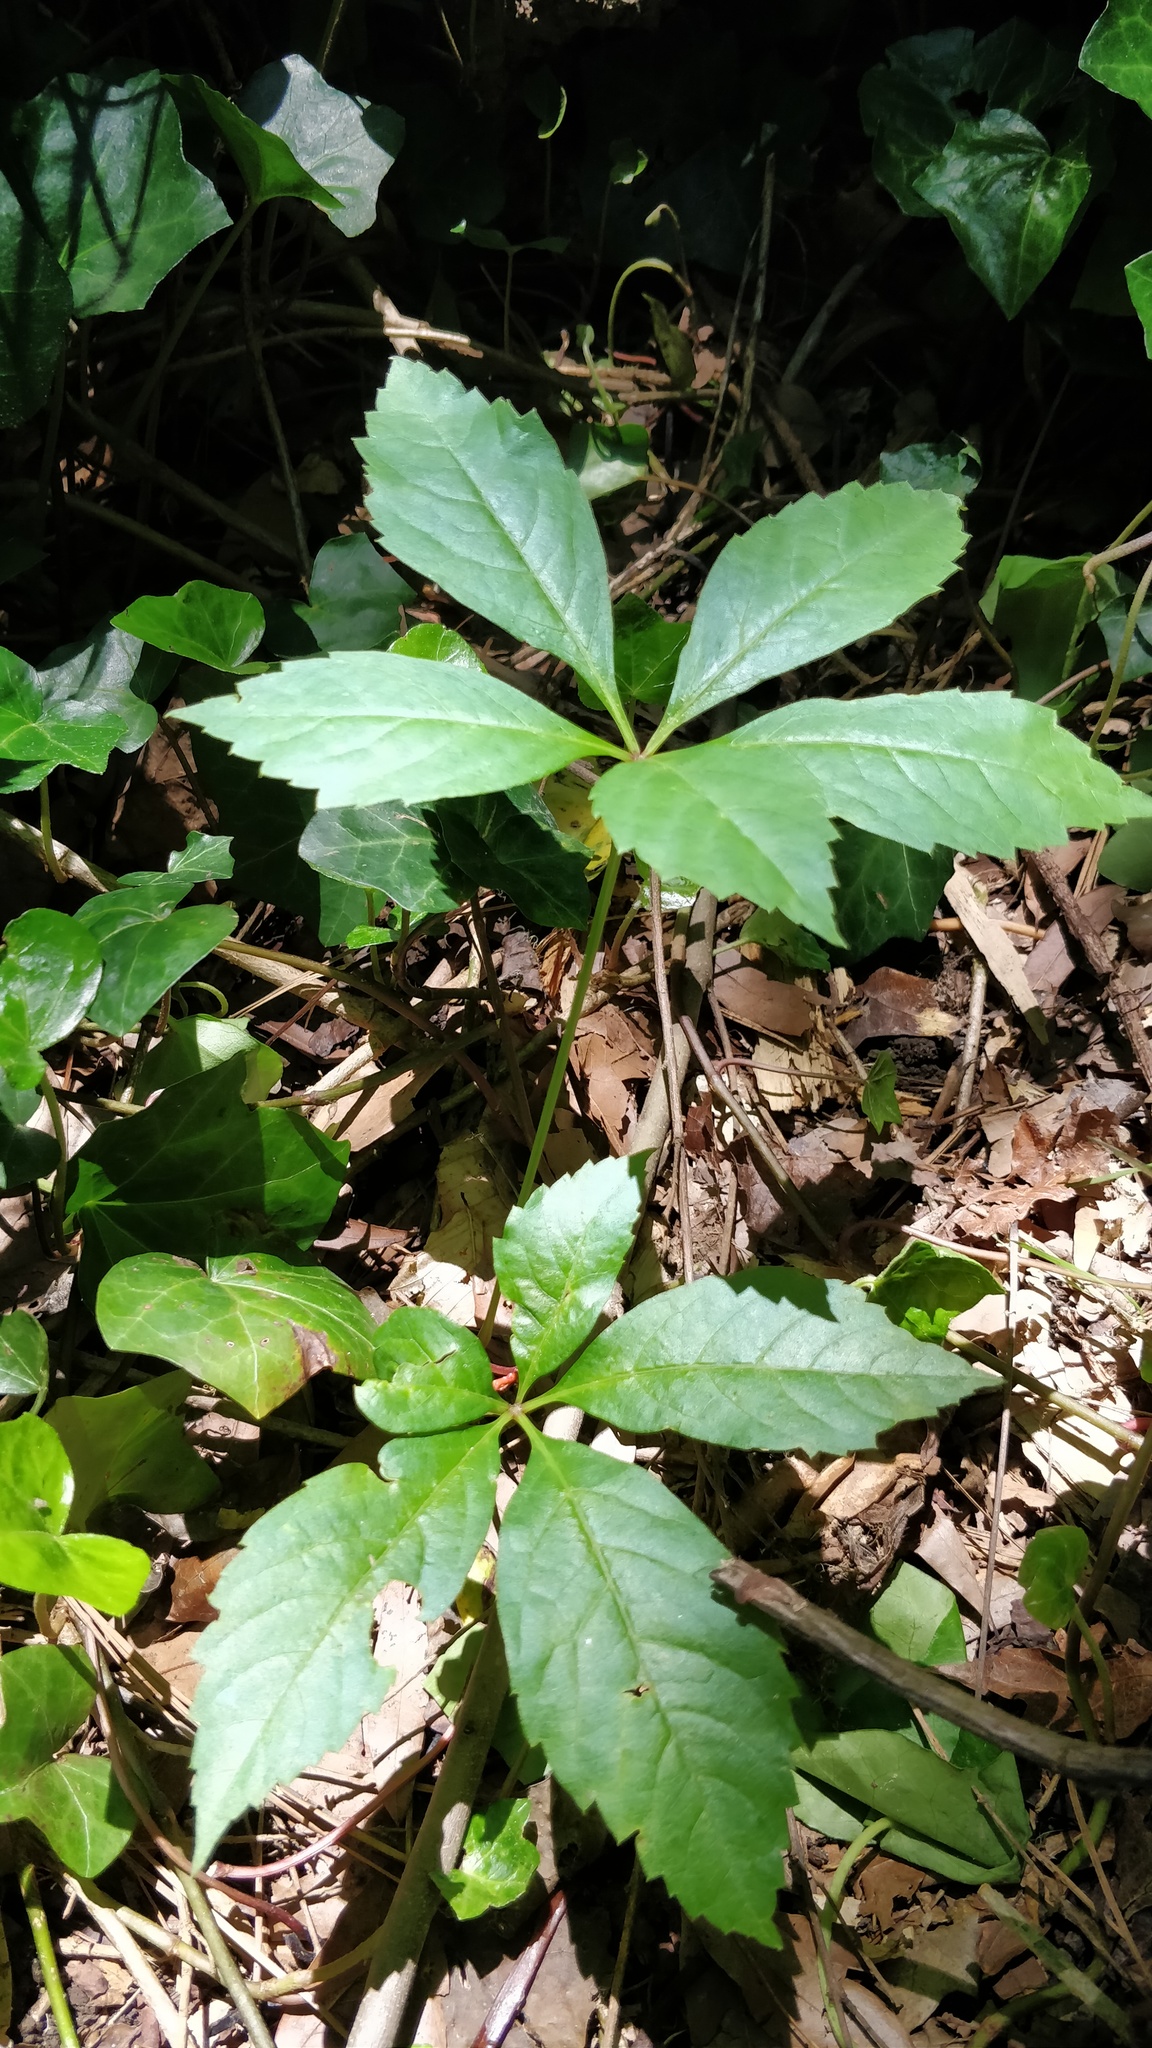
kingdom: Plantae
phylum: Tracheophyta
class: Magnoliopsida
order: Vitales
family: Vitaceae
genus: Parthenocissus
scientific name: Parthenocissus quinquefolia
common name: Virginia-creeper
